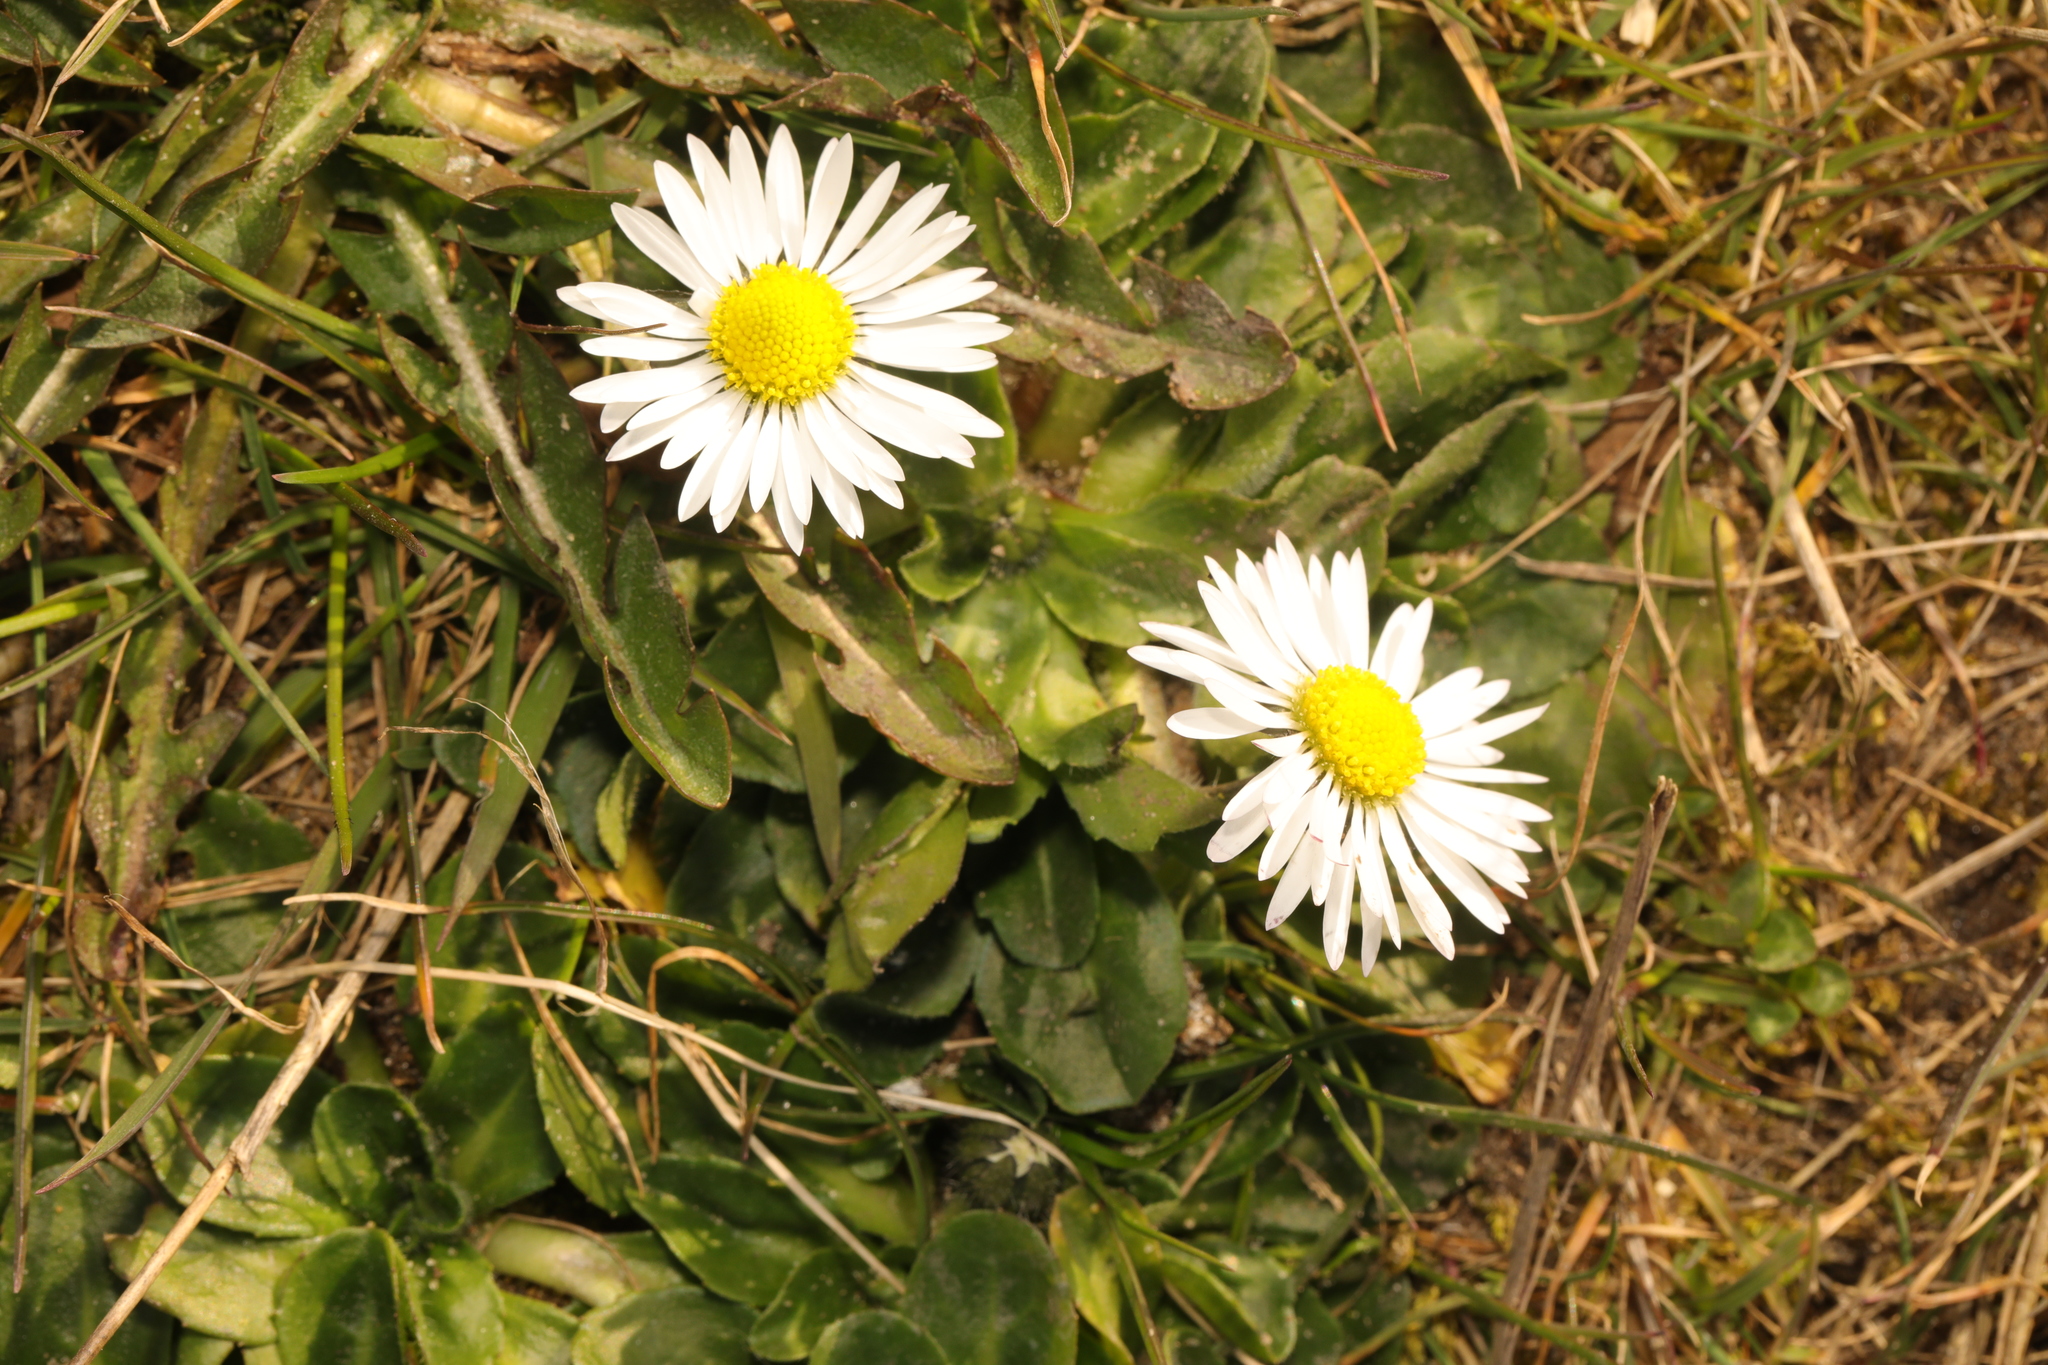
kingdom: Plantae
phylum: Tracheophyta
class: Magnoliopsida
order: Asterales
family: Asteraceae
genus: Bellis
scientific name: Bellis perennis
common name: Lawndaisy
